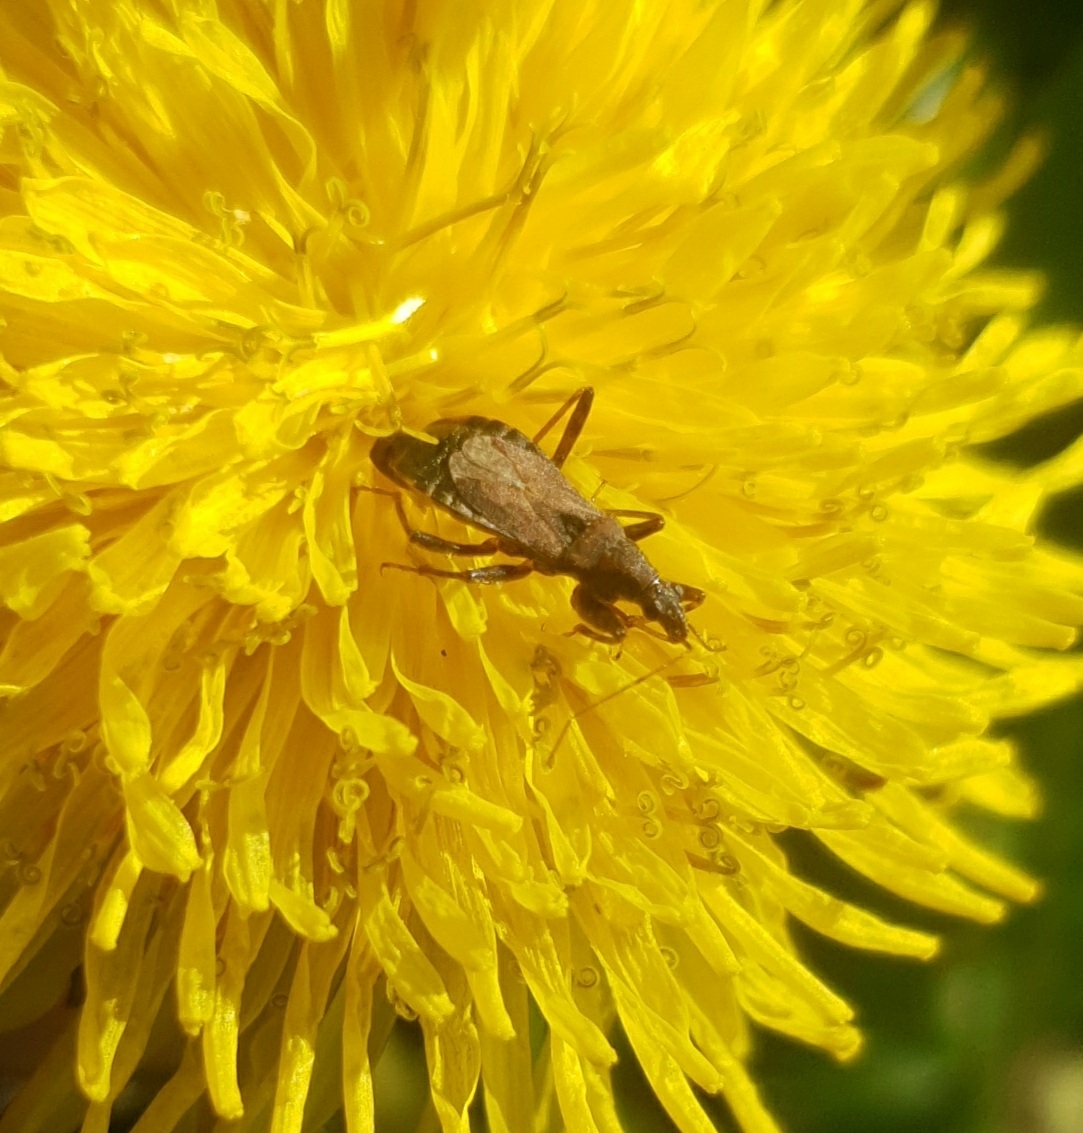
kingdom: Animalia
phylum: Arthropoda
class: Insecta
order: Hemiptera
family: Nabidae
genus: Himacerus
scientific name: Himacerus mirmicoides
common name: Ant damsel bug
